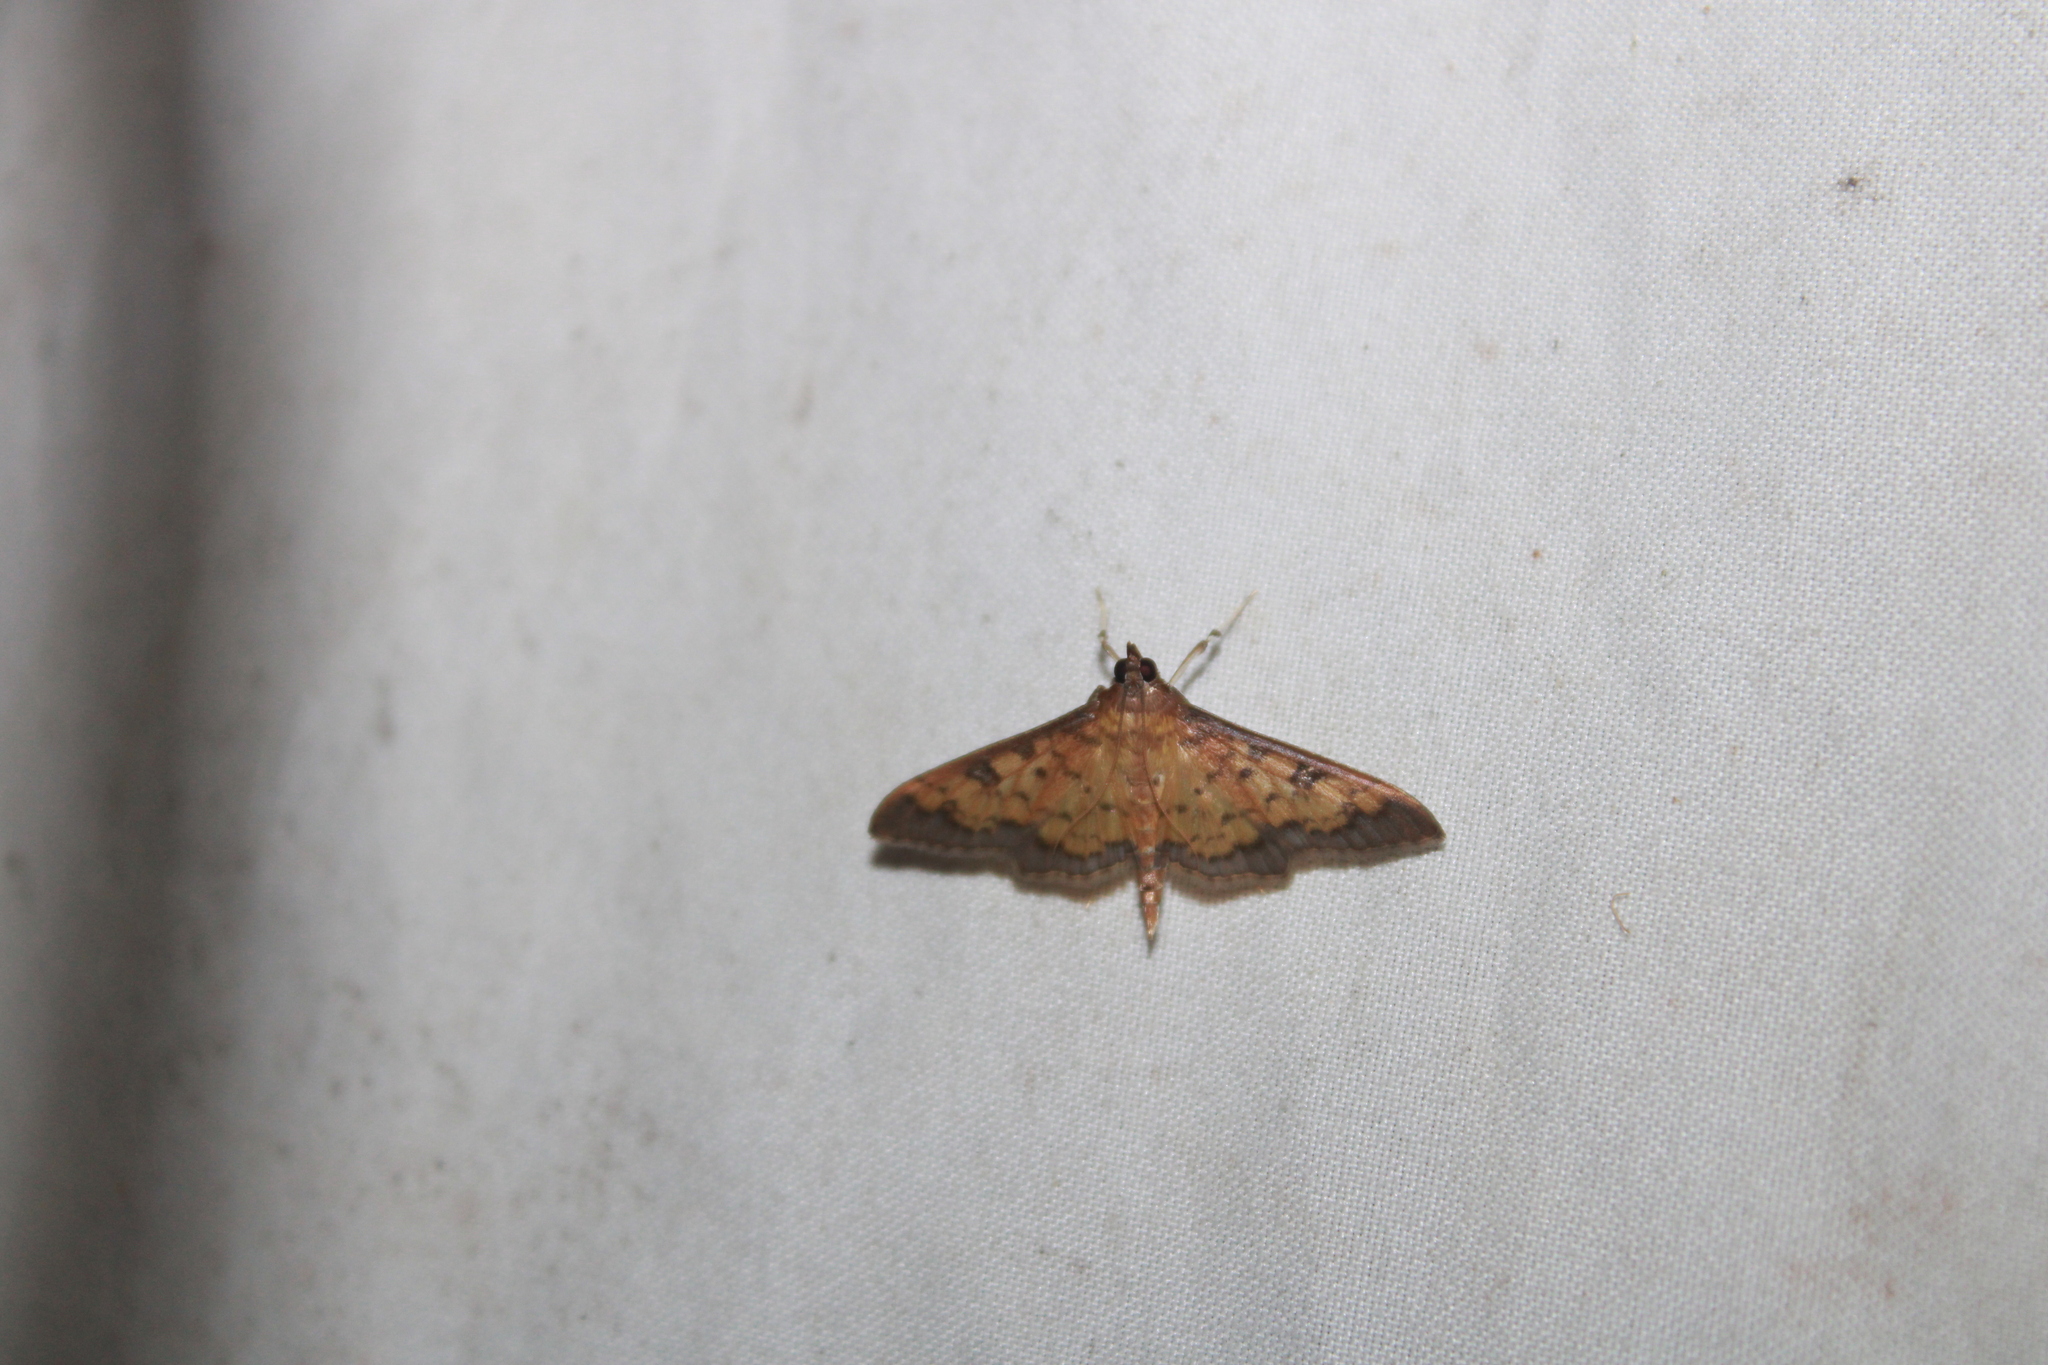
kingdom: Animalia
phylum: Arthropoda
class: Insecta
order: Lepidoptera
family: Crambidae
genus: Diacme
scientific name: Diacme phyllisalis
